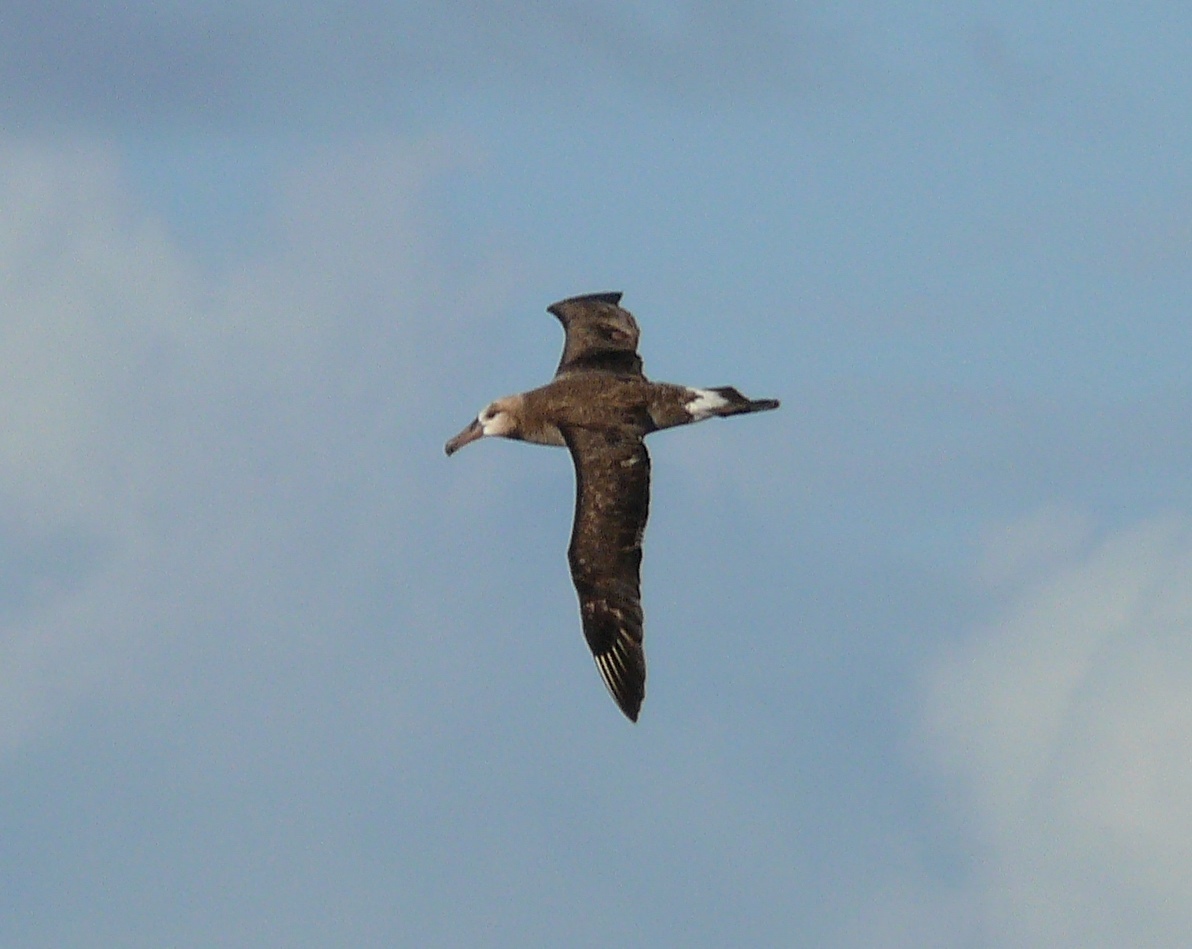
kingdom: Animalia
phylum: Chordata
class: Aves
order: Procellariiformes
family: Diomedeidae
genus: Phoebastria
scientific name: Phoebastria nigripes
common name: Black-footed albatross
